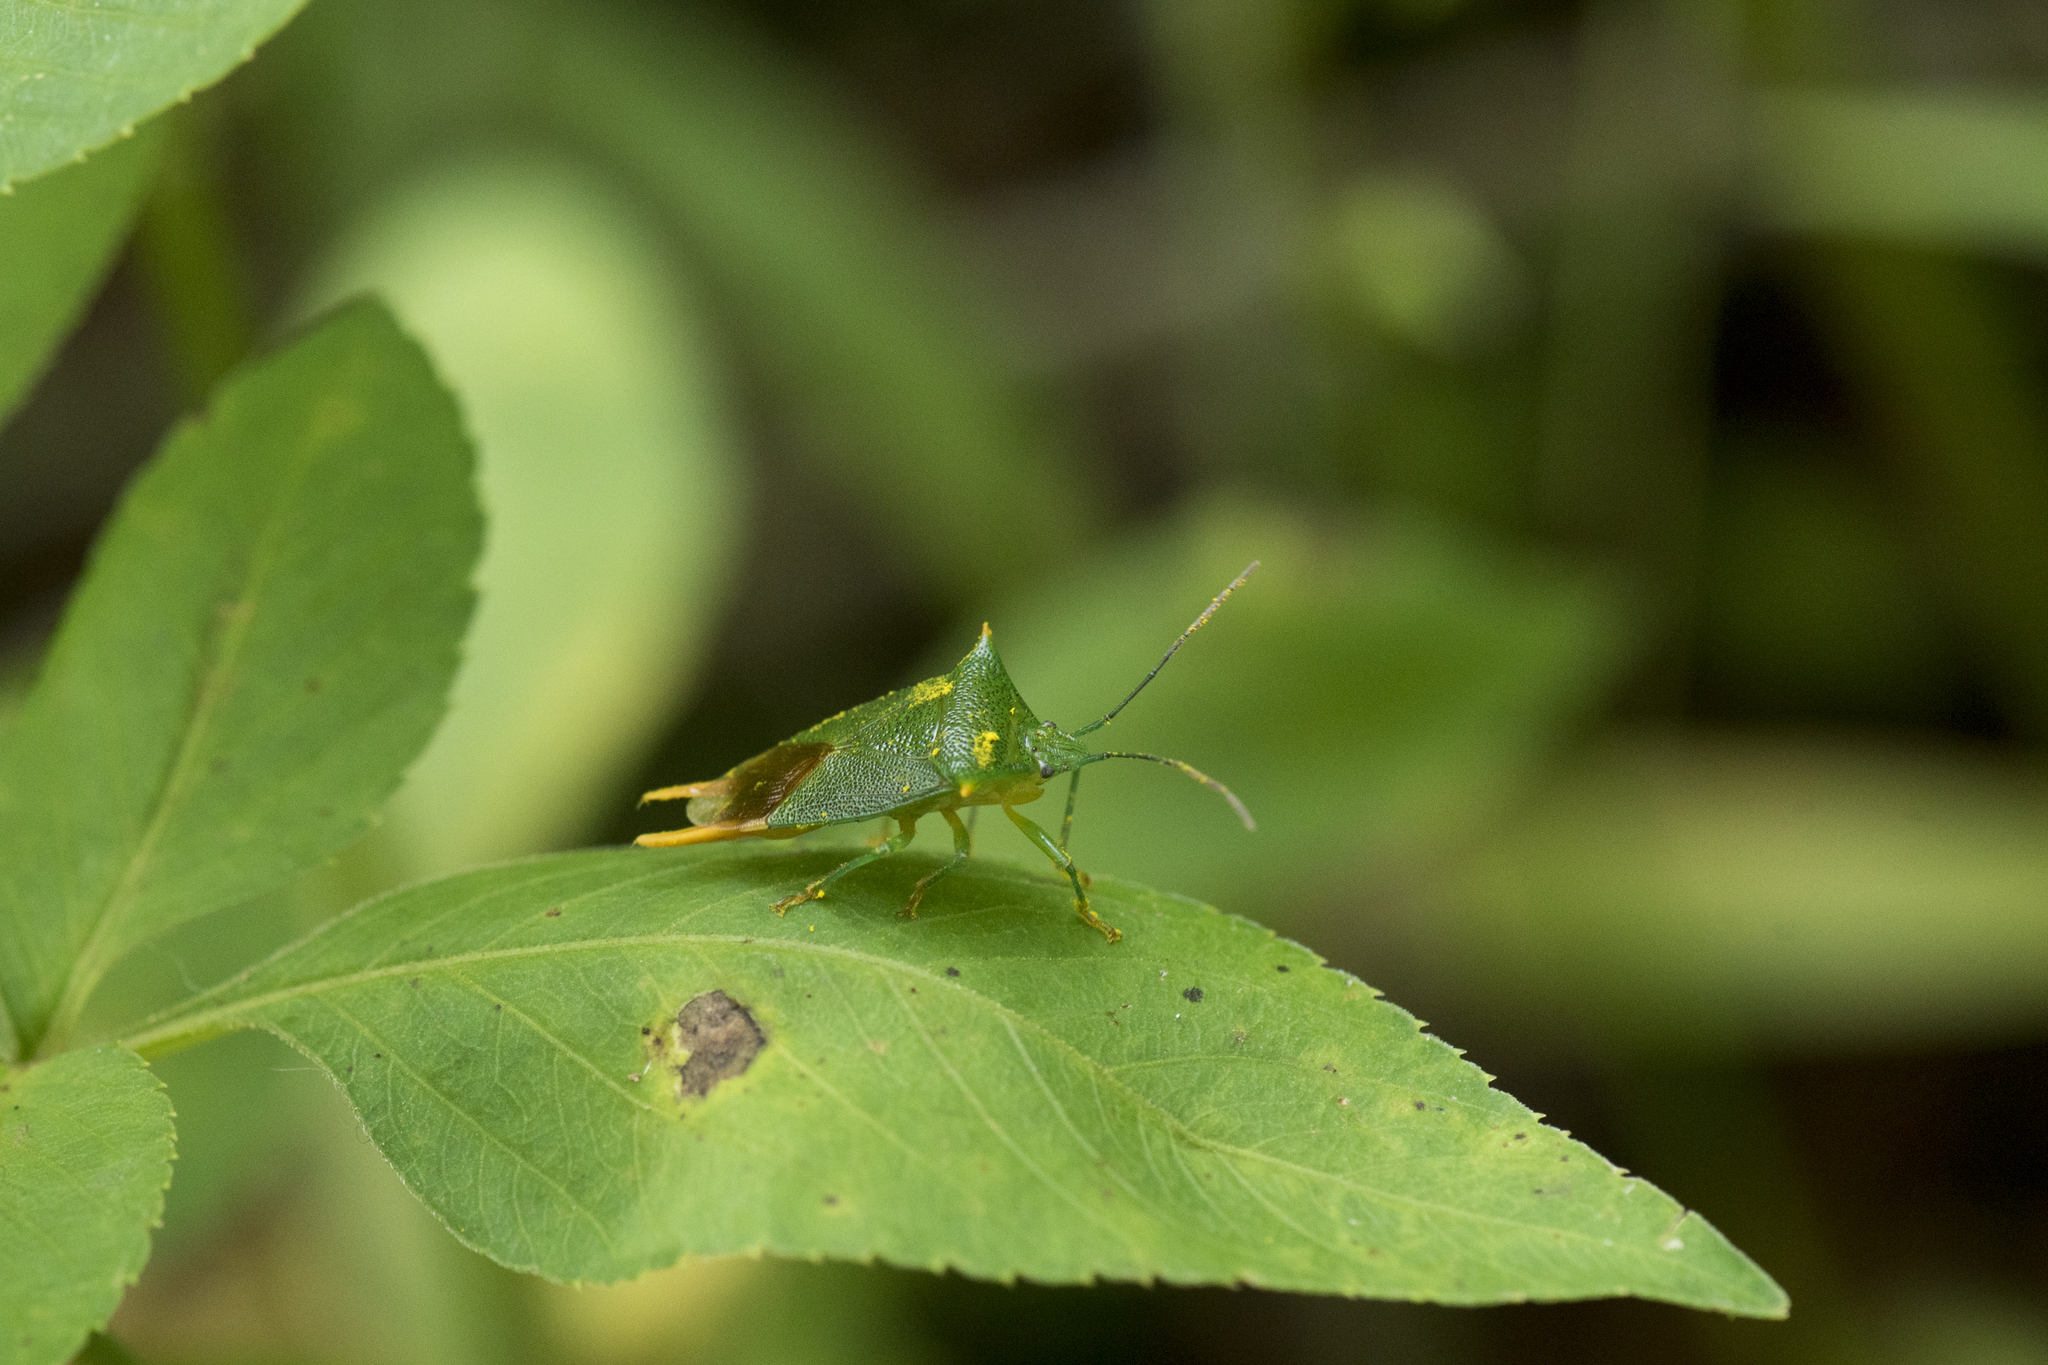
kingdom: Animalia
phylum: Arthropoda
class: Insecta
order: Hemiptera
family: Acanthosomatidae
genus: Acanthosoma
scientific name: Acanthosoma asahinai
